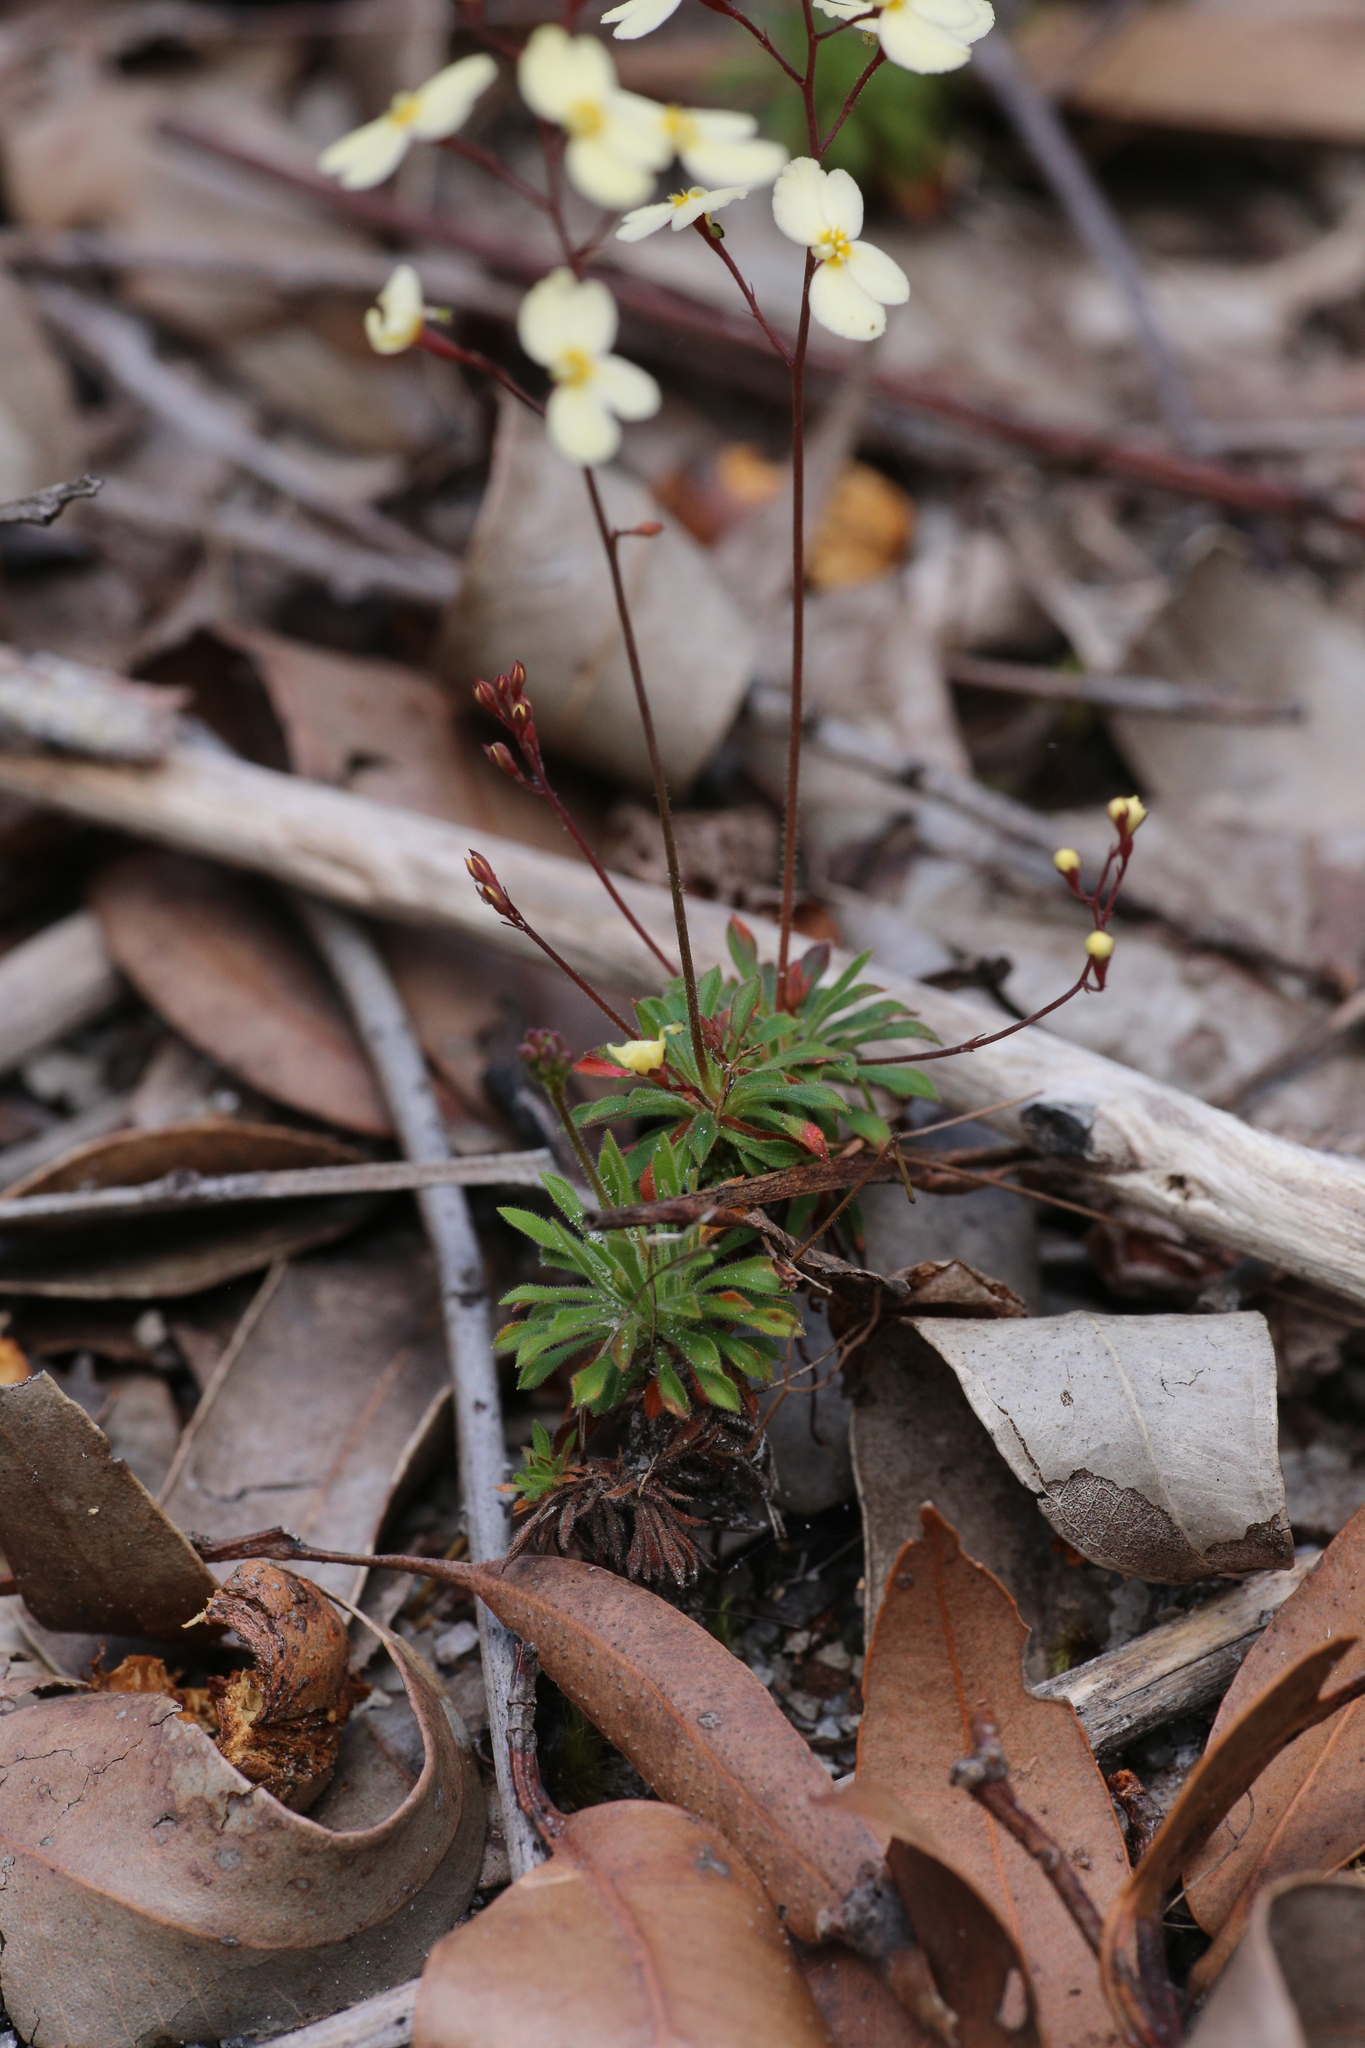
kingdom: Plantae
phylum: Tracheophyta
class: Magnoliopsida
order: Asterales
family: Stylidiaceae
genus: Stylidium
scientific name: Stylidium acuminatum
